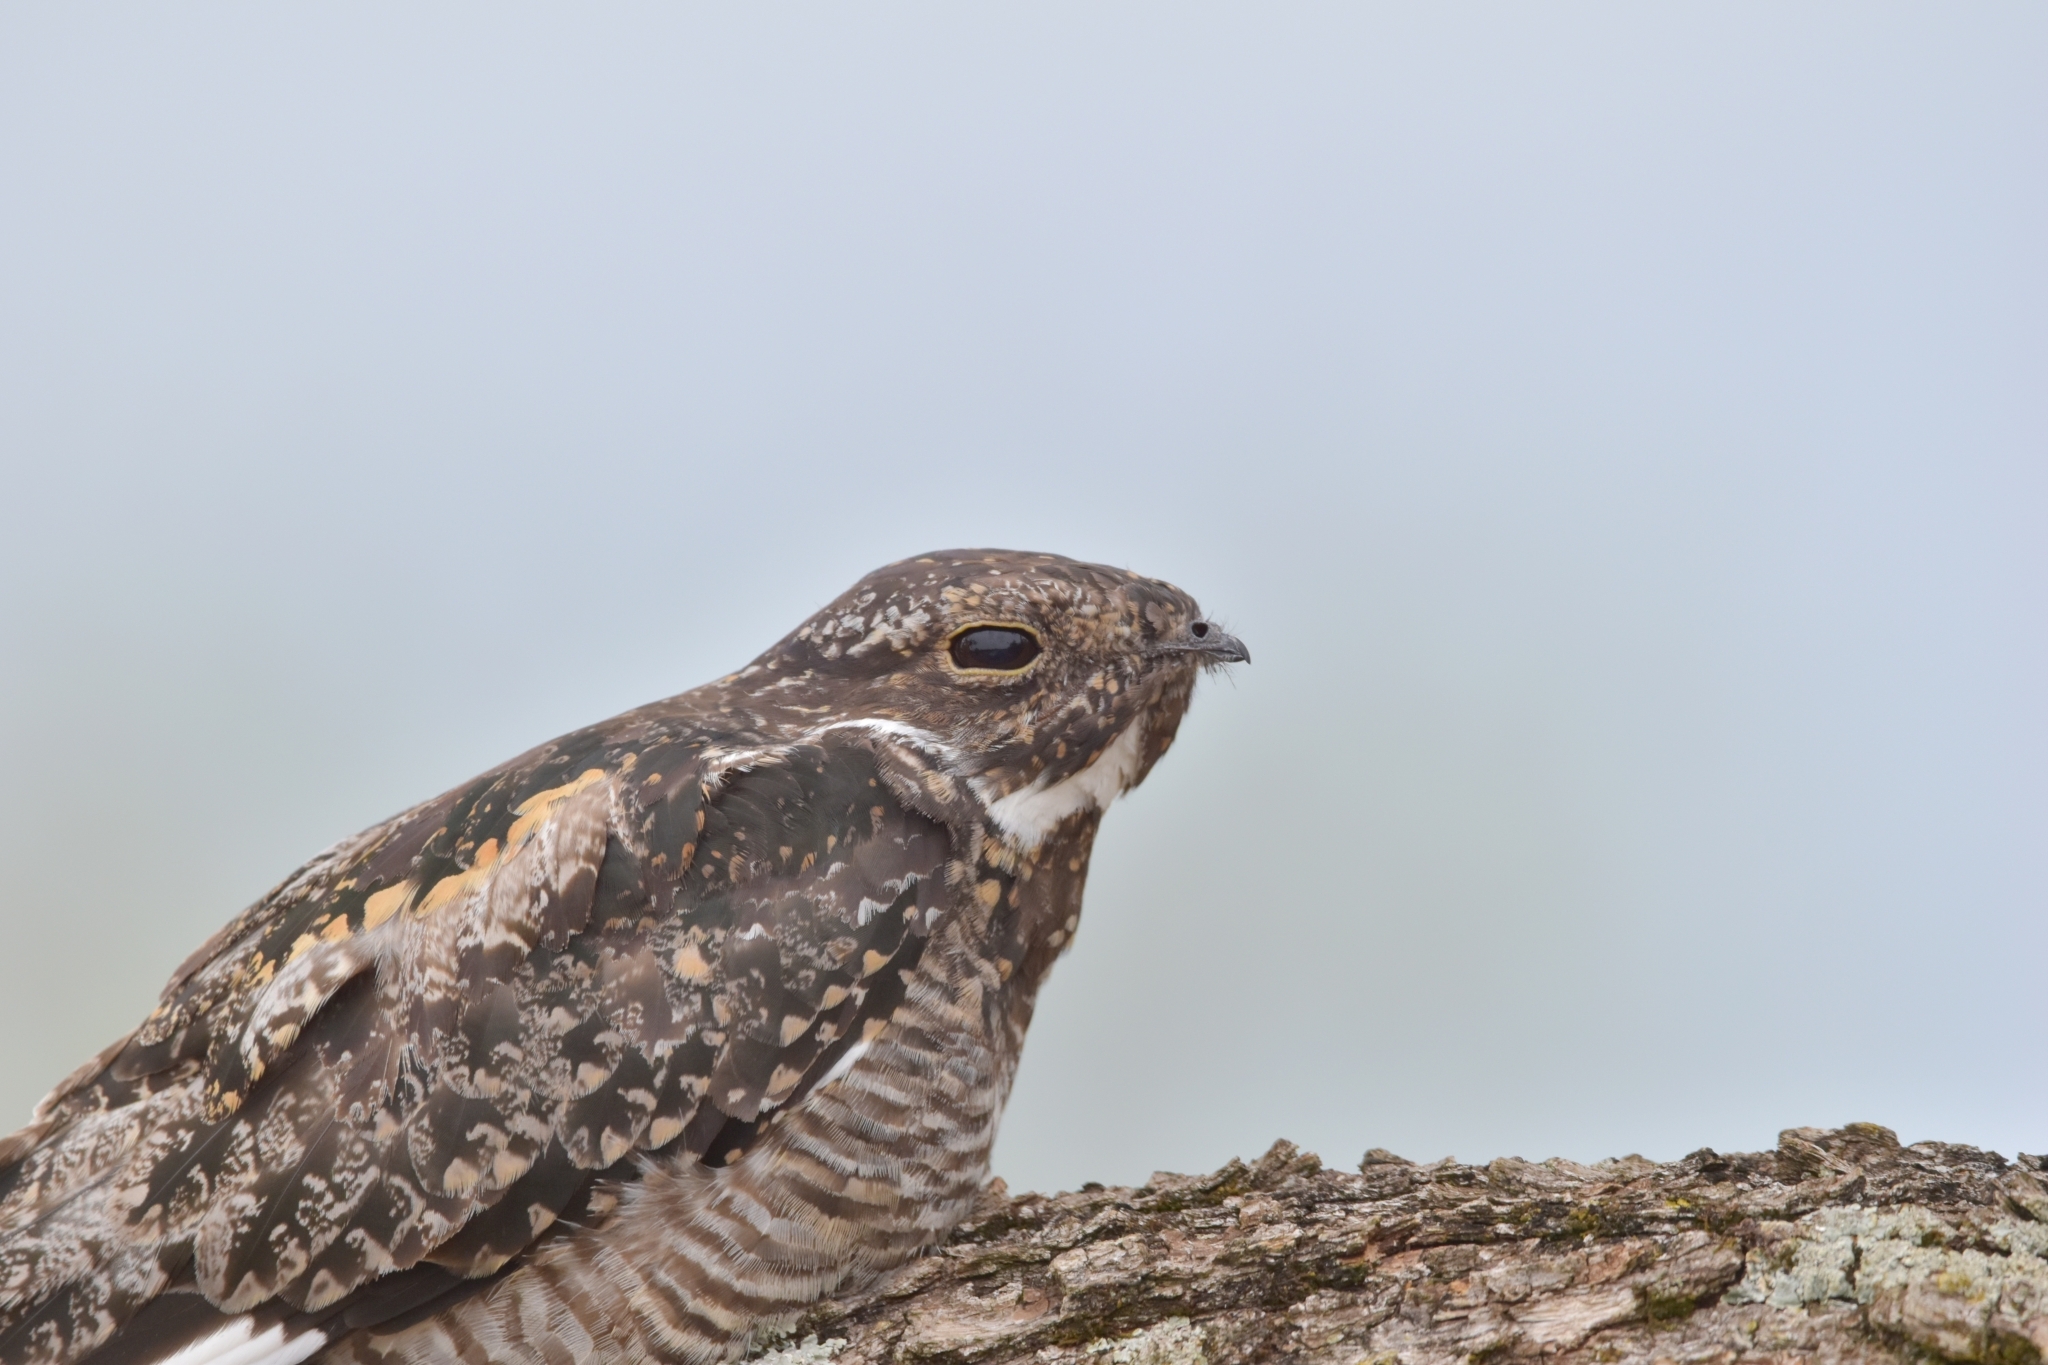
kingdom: Animalia
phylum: Chordata
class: Aves
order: Caprimulgiformes
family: Caprimulgidae
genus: Chordeiles
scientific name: Chordeiles minor
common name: Common nighthawk
